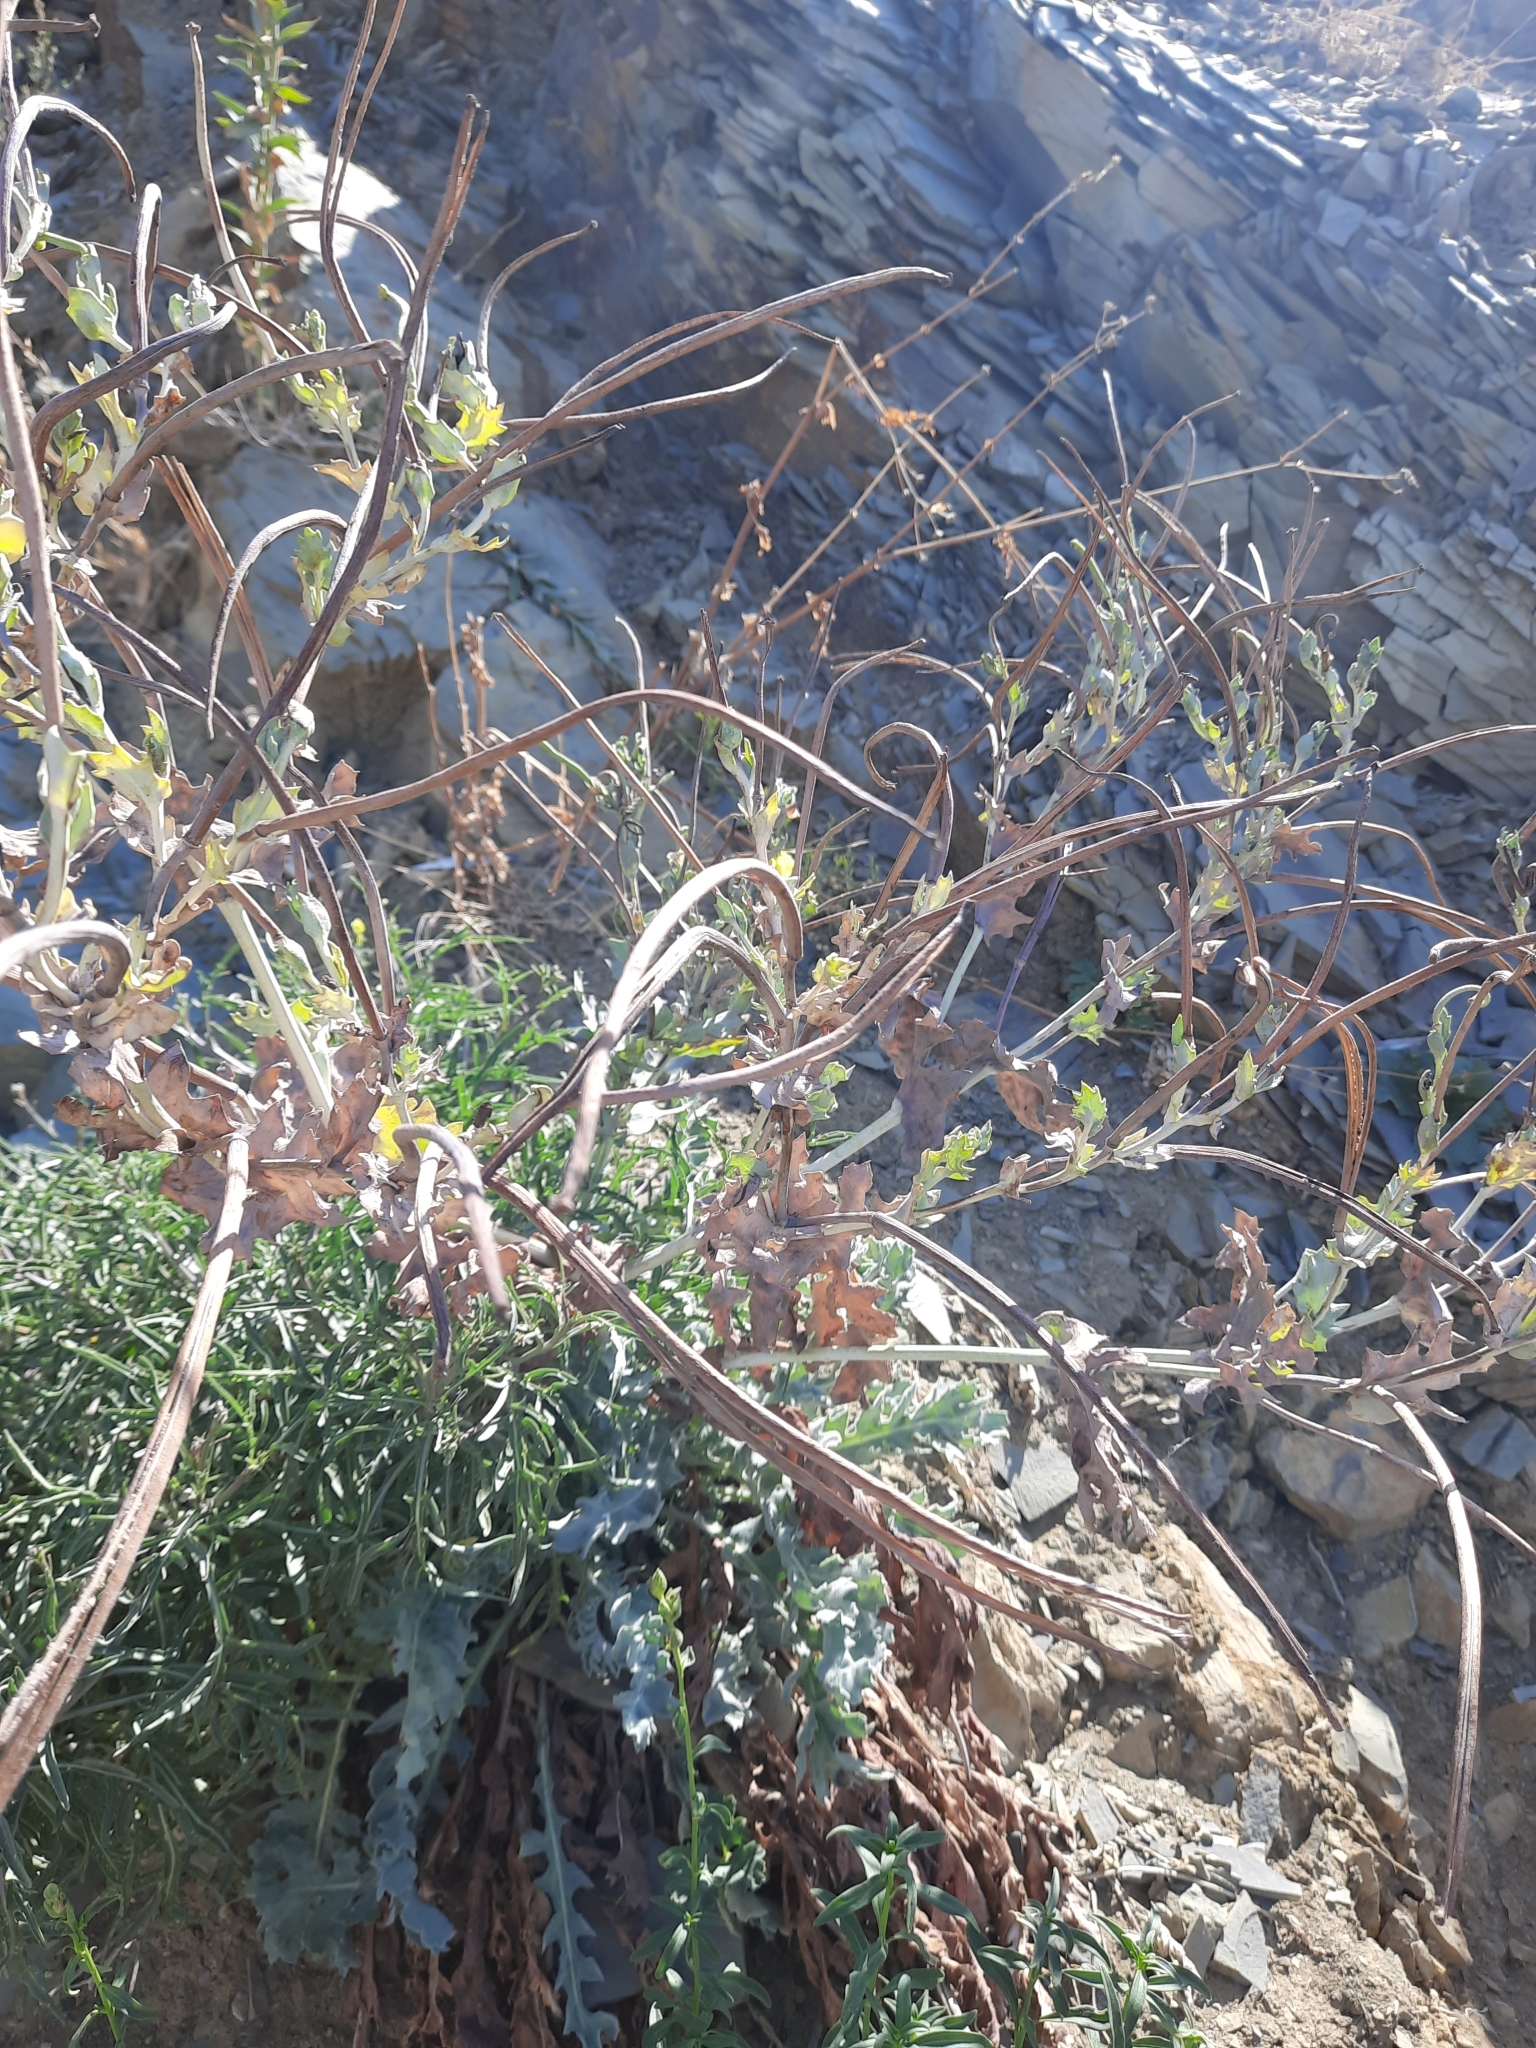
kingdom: Plantae
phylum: Tracheophyta
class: Magnoliopsida
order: Ranunculales
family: Papaveraceae
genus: Glaucium
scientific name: Glaucium flavum
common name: Yellow horned-poppy
